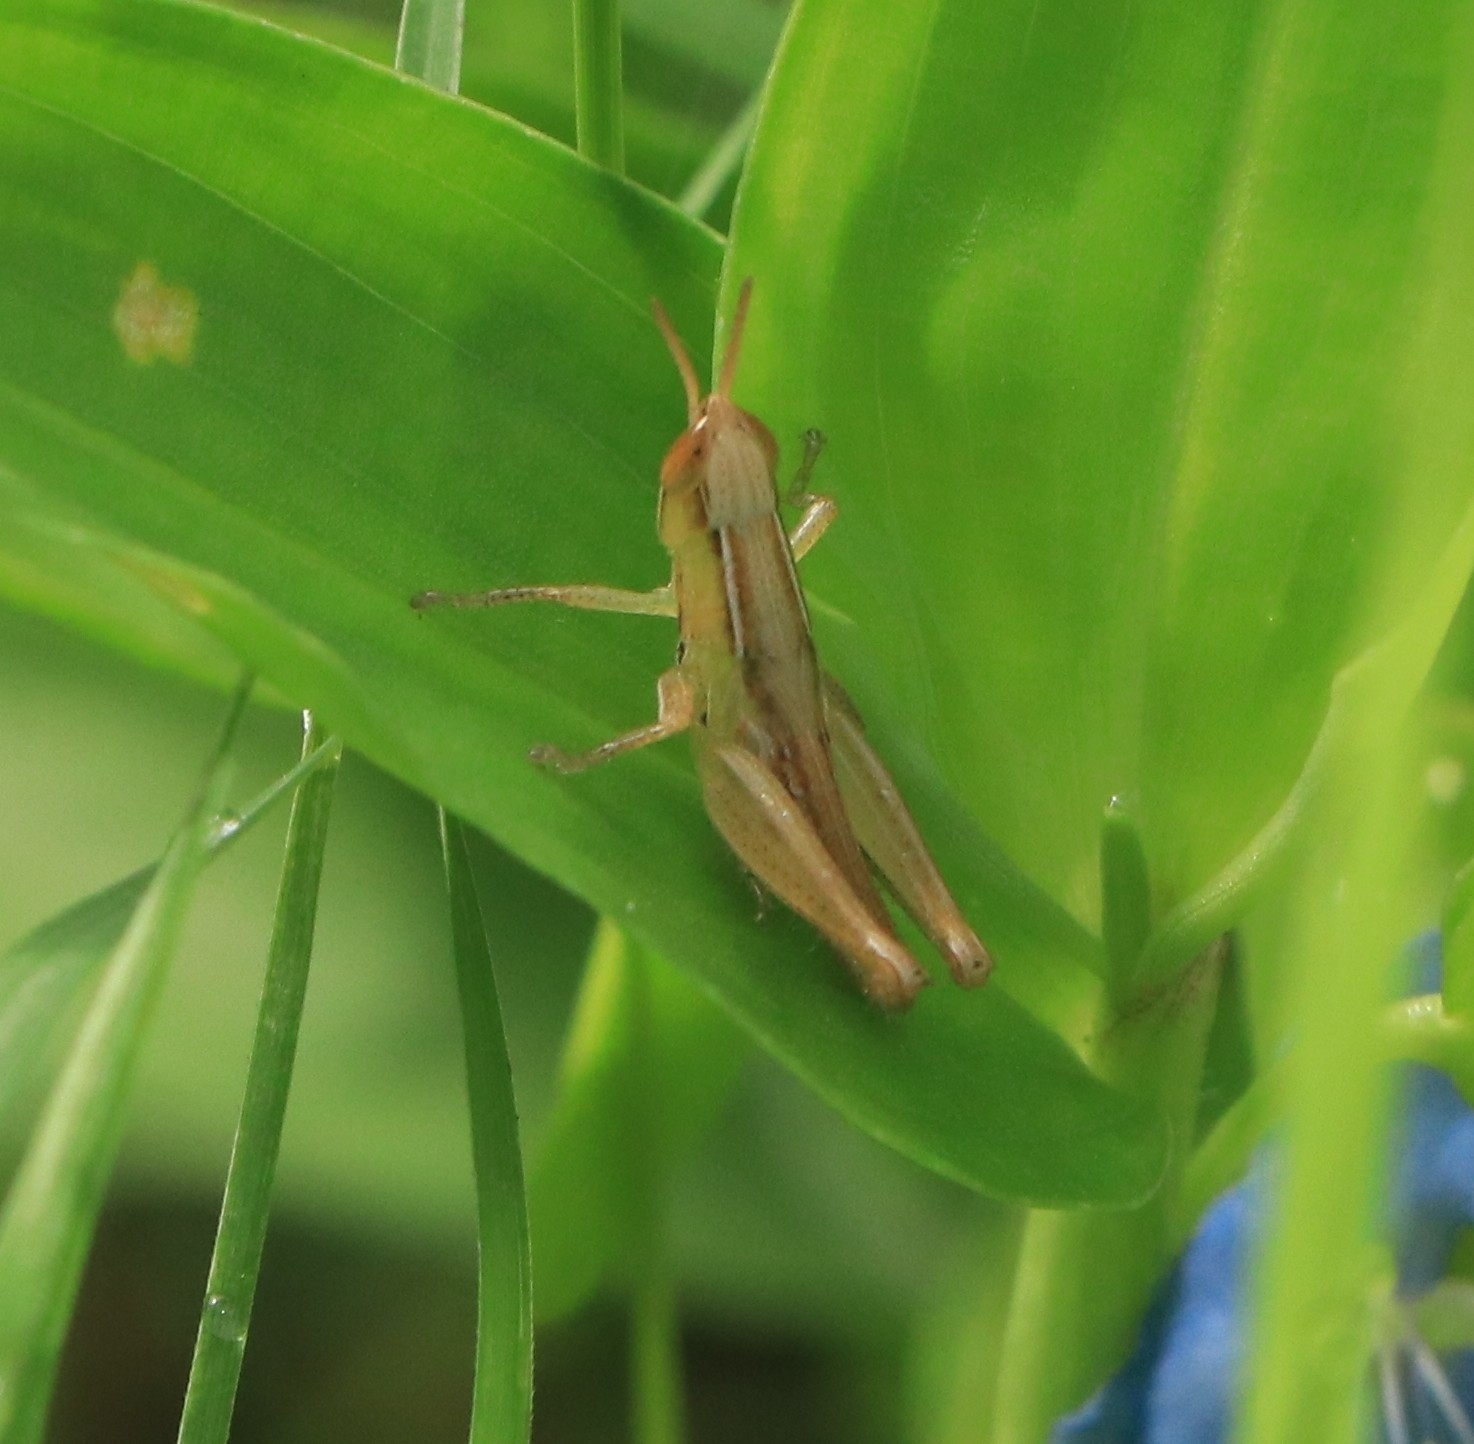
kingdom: Animalia
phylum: Arthropoda
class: Insecta
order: Orthoptera
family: Acrididae
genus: Spathosternum
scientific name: Spathosternum prasiniferum
